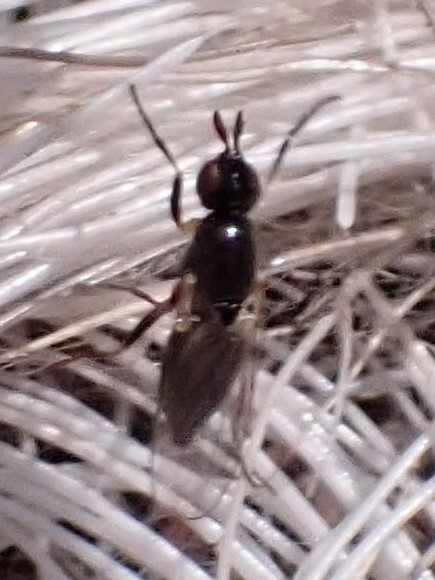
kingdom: Animalia
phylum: Arthropoda
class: Insecta
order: Diptera
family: Piophilidae
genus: Prochyliza
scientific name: Prochyliza xanthostoma
